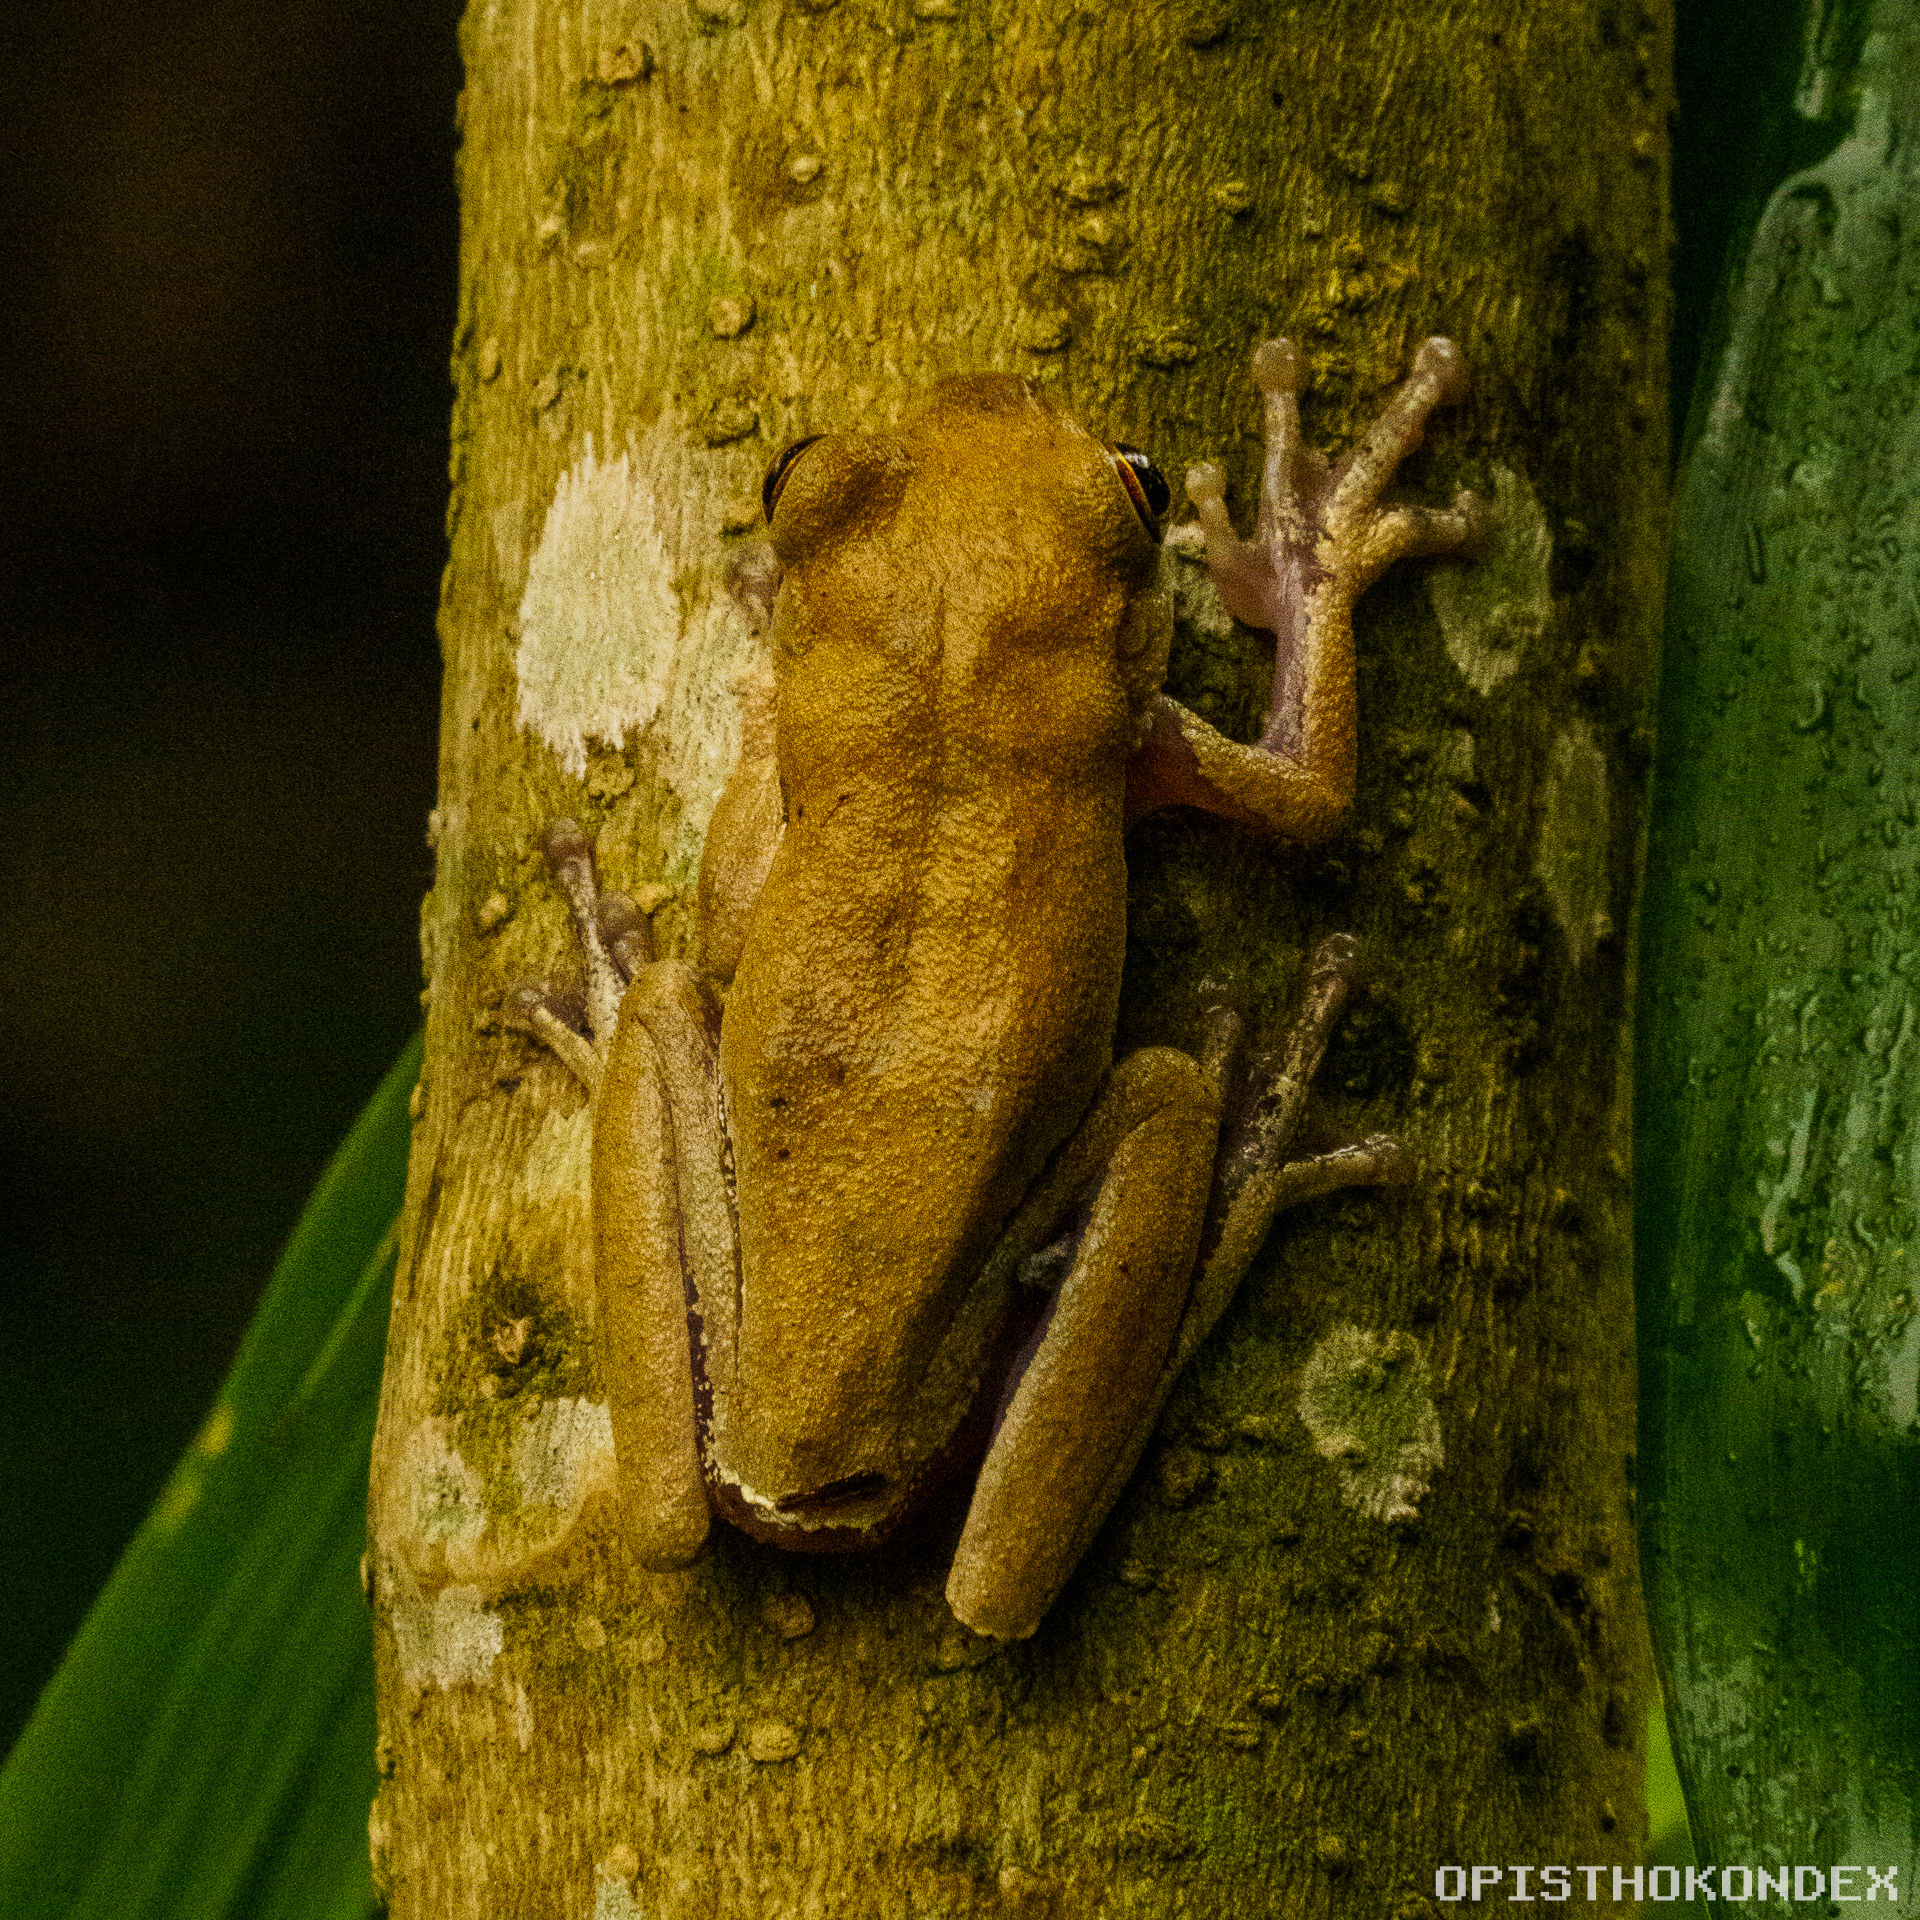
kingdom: Animalia
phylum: Chordata
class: Amphibia
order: Anura
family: Hylidae
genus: Rheohyla
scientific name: Rheohyla miotympanum
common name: Small-eard hyla
